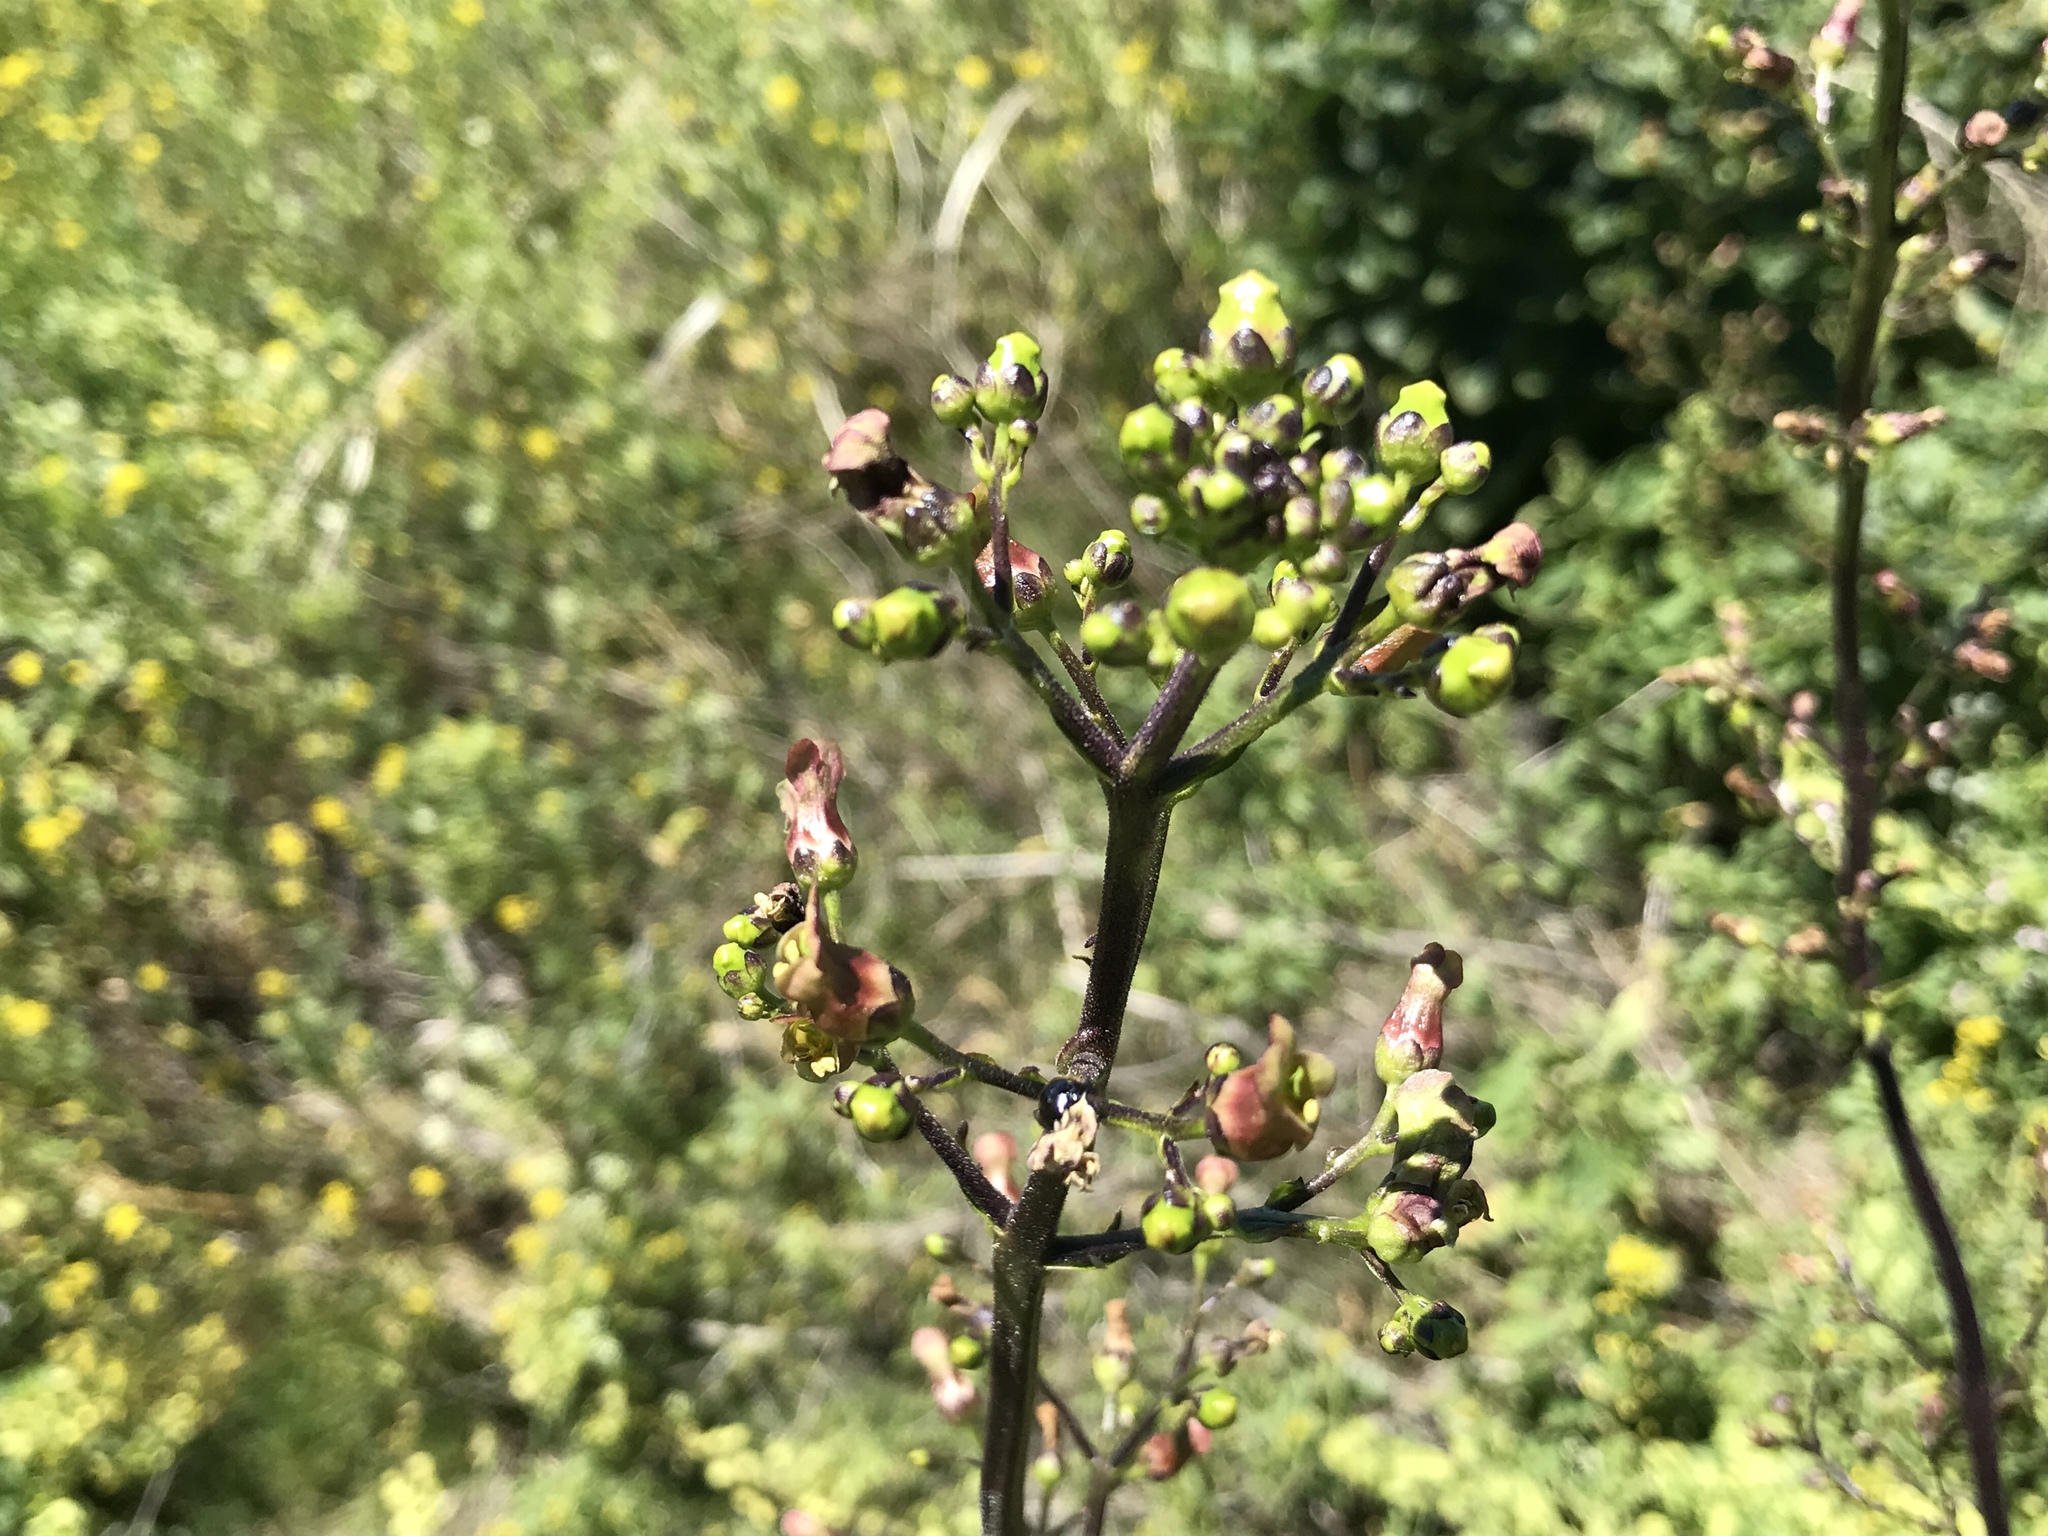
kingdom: Plantae
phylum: Tracheophyta
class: Magnoliopsida
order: Lamiales
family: Scrophulariaceae
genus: Scrophularia
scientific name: Scrophularia californica
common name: California figwort
